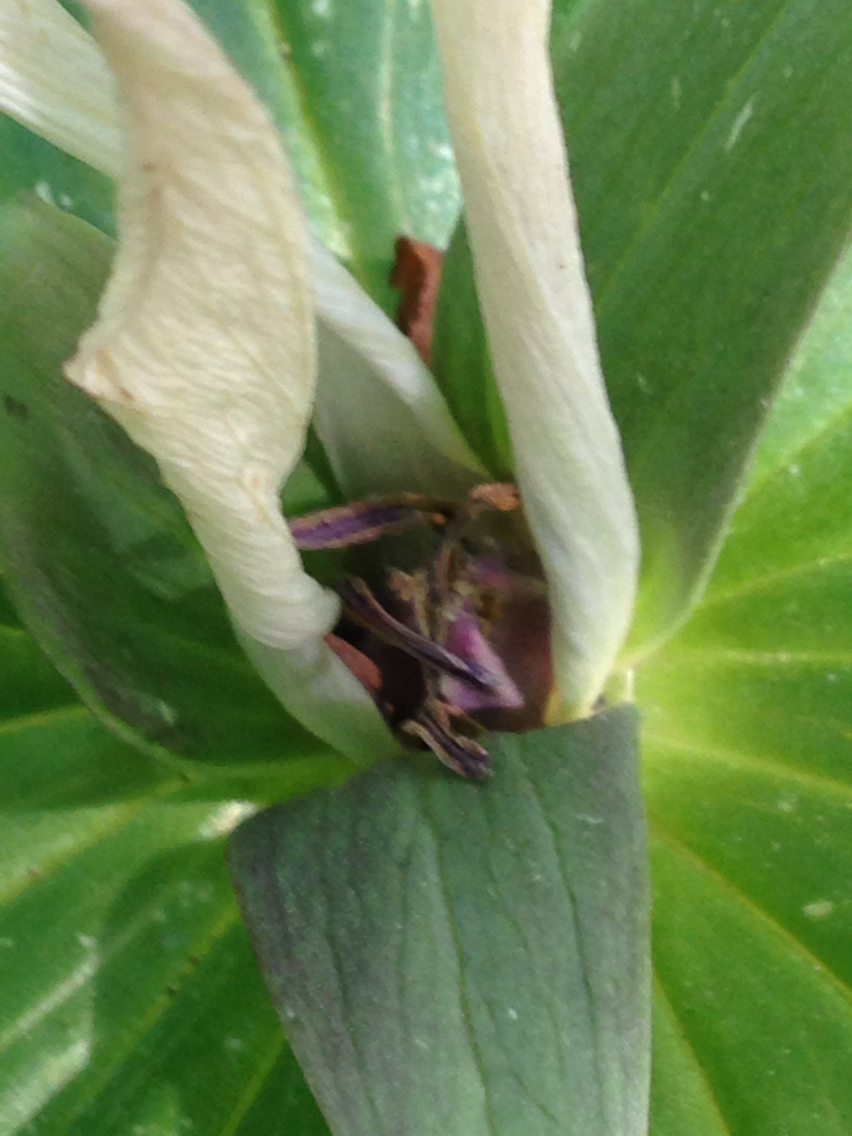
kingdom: Plantae
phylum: Tracheophyta
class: Liliopsida
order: Liliales
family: Melanthiaceae
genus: Trillium
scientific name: Trillium chloropetalum
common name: Giant trillium
